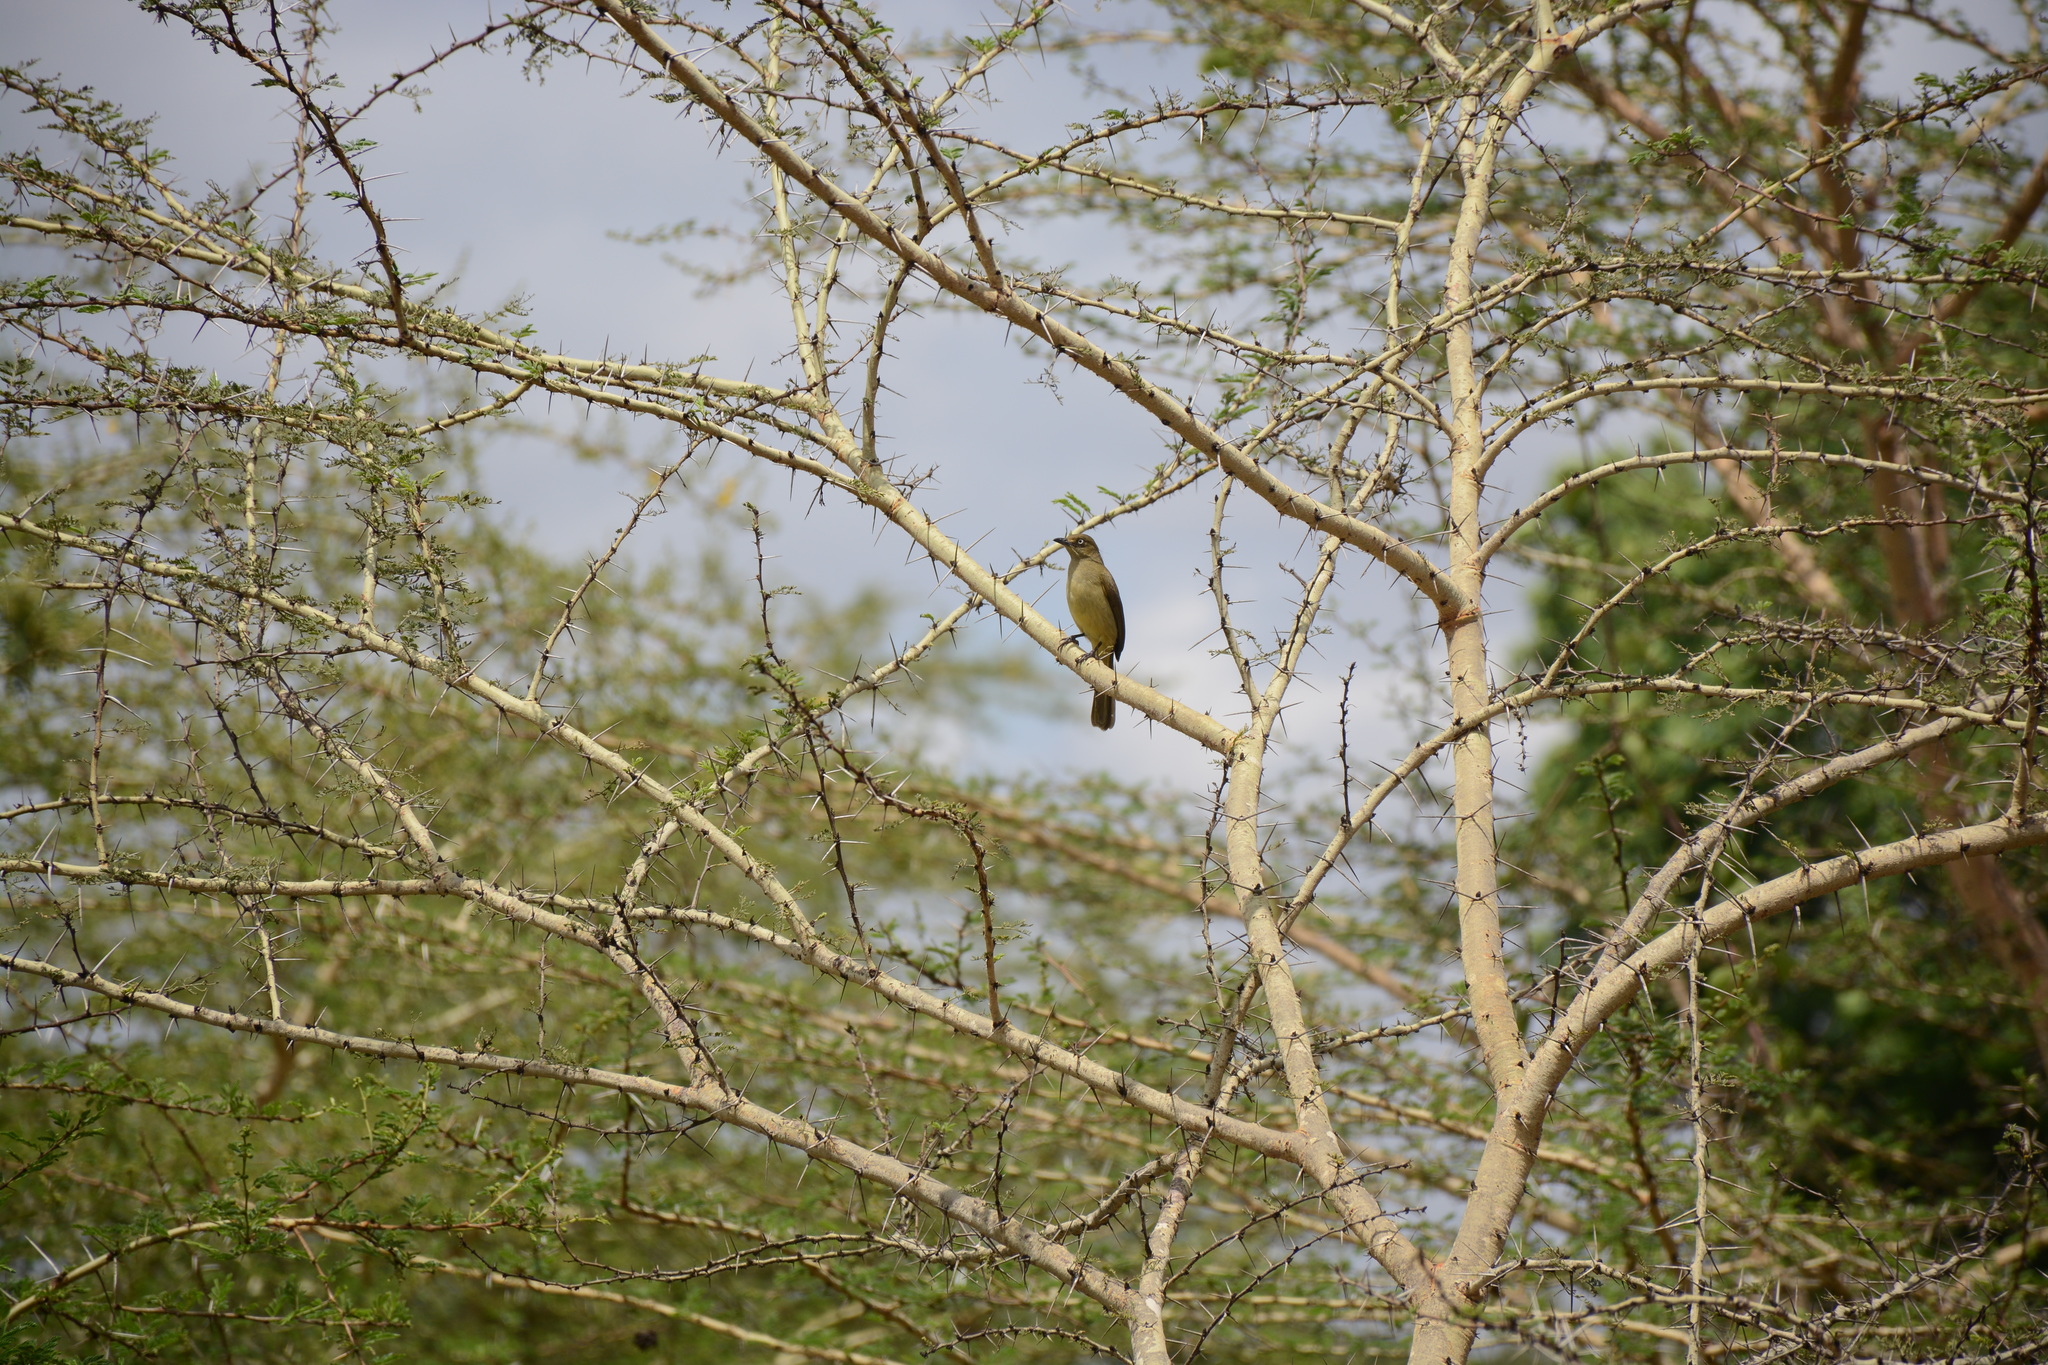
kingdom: Animalia
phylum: Chordata
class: Aves
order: Passeriformes
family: Pycnonotidae
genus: Andropadus
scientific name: Andropadus importunus
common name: Sombre greenbul
